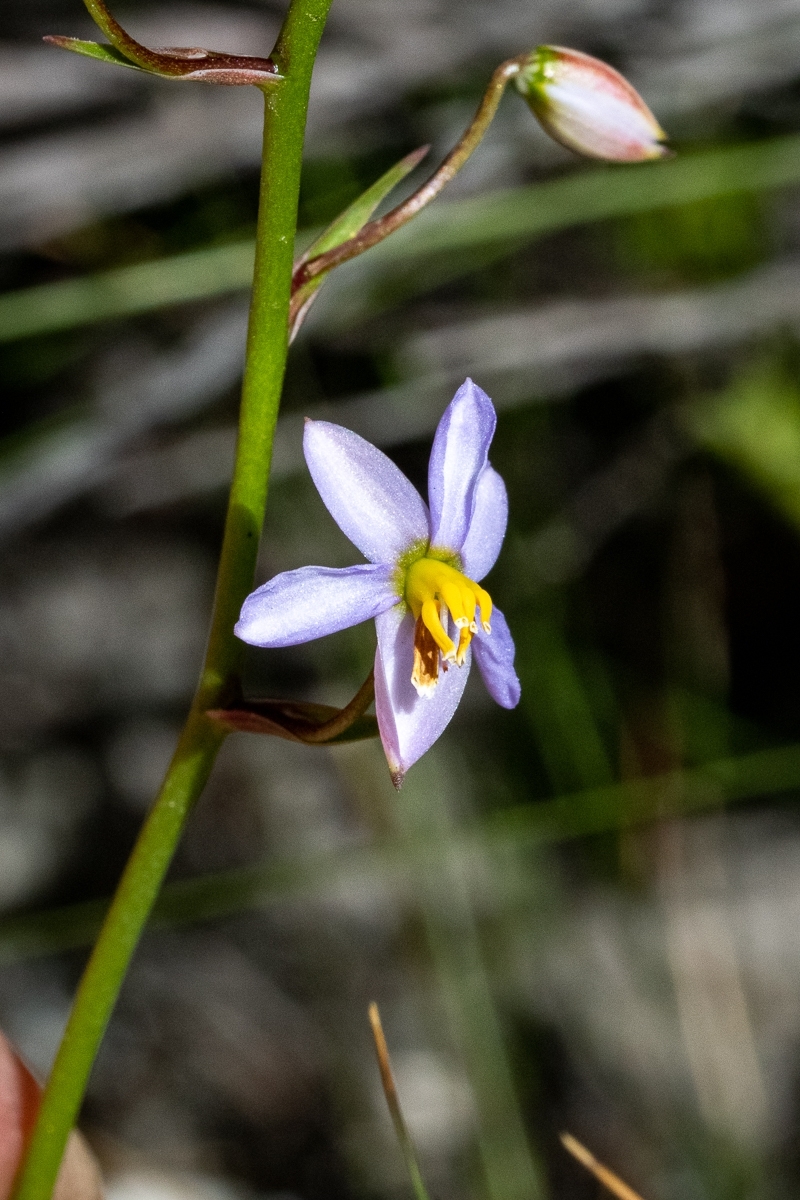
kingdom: Plantae
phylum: Tracheophyta
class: Liliopsida
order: Asparagales
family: Tecophilaeaceae
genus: Cyanella
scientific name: Cyanella hyacinthoides
